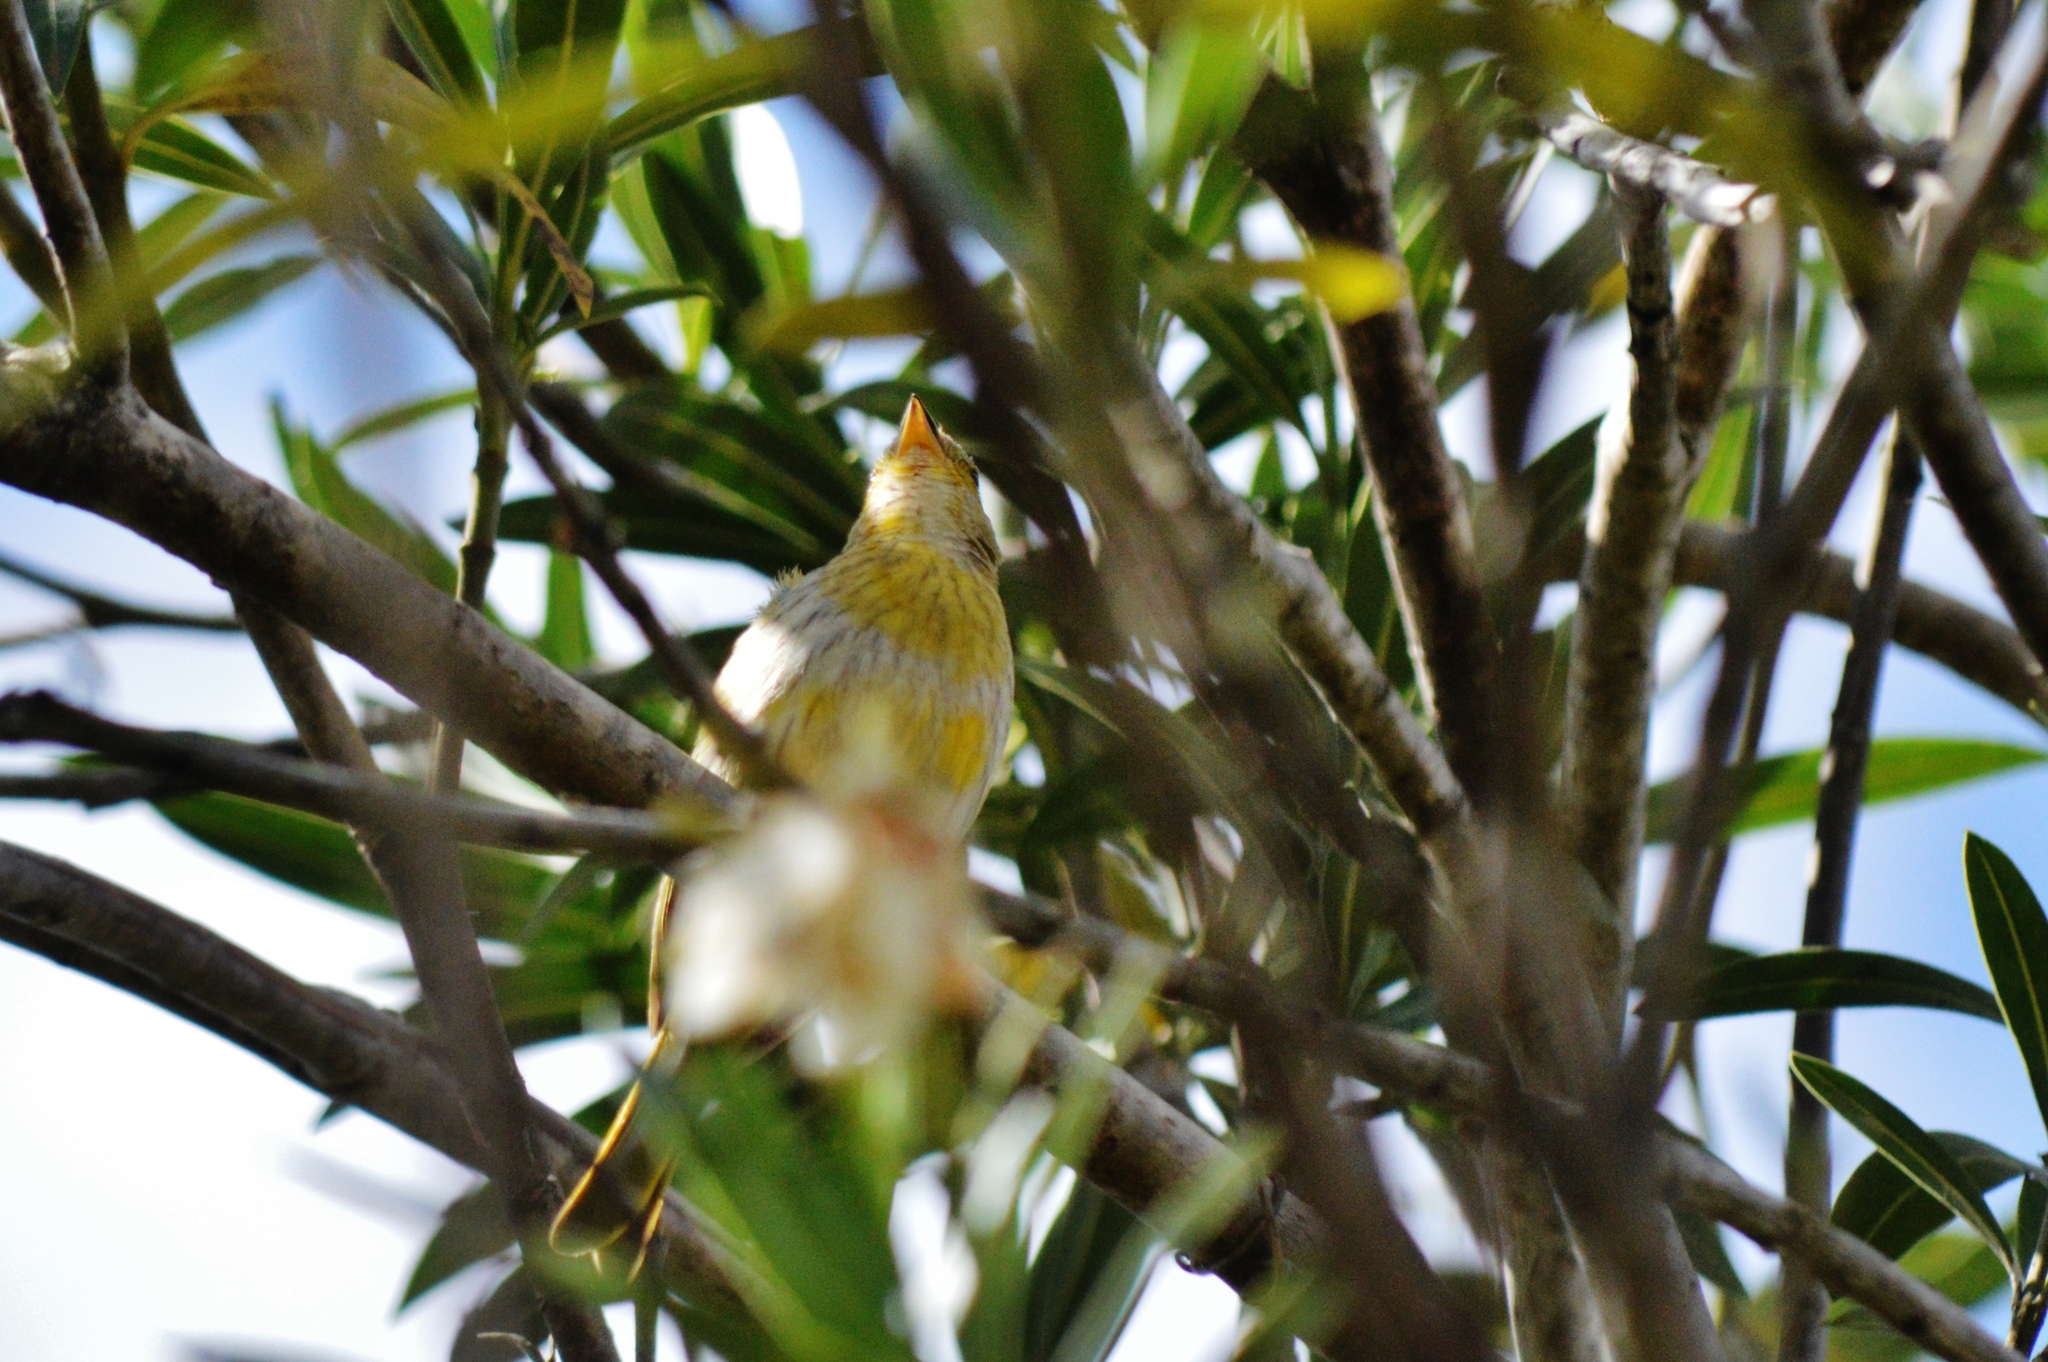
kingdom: Animalia
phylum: Chordata
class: Aves
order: Passeriformes
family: Thraupidae
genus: Sicalis
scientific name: Sicalis flaveola
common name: Saffron finch
